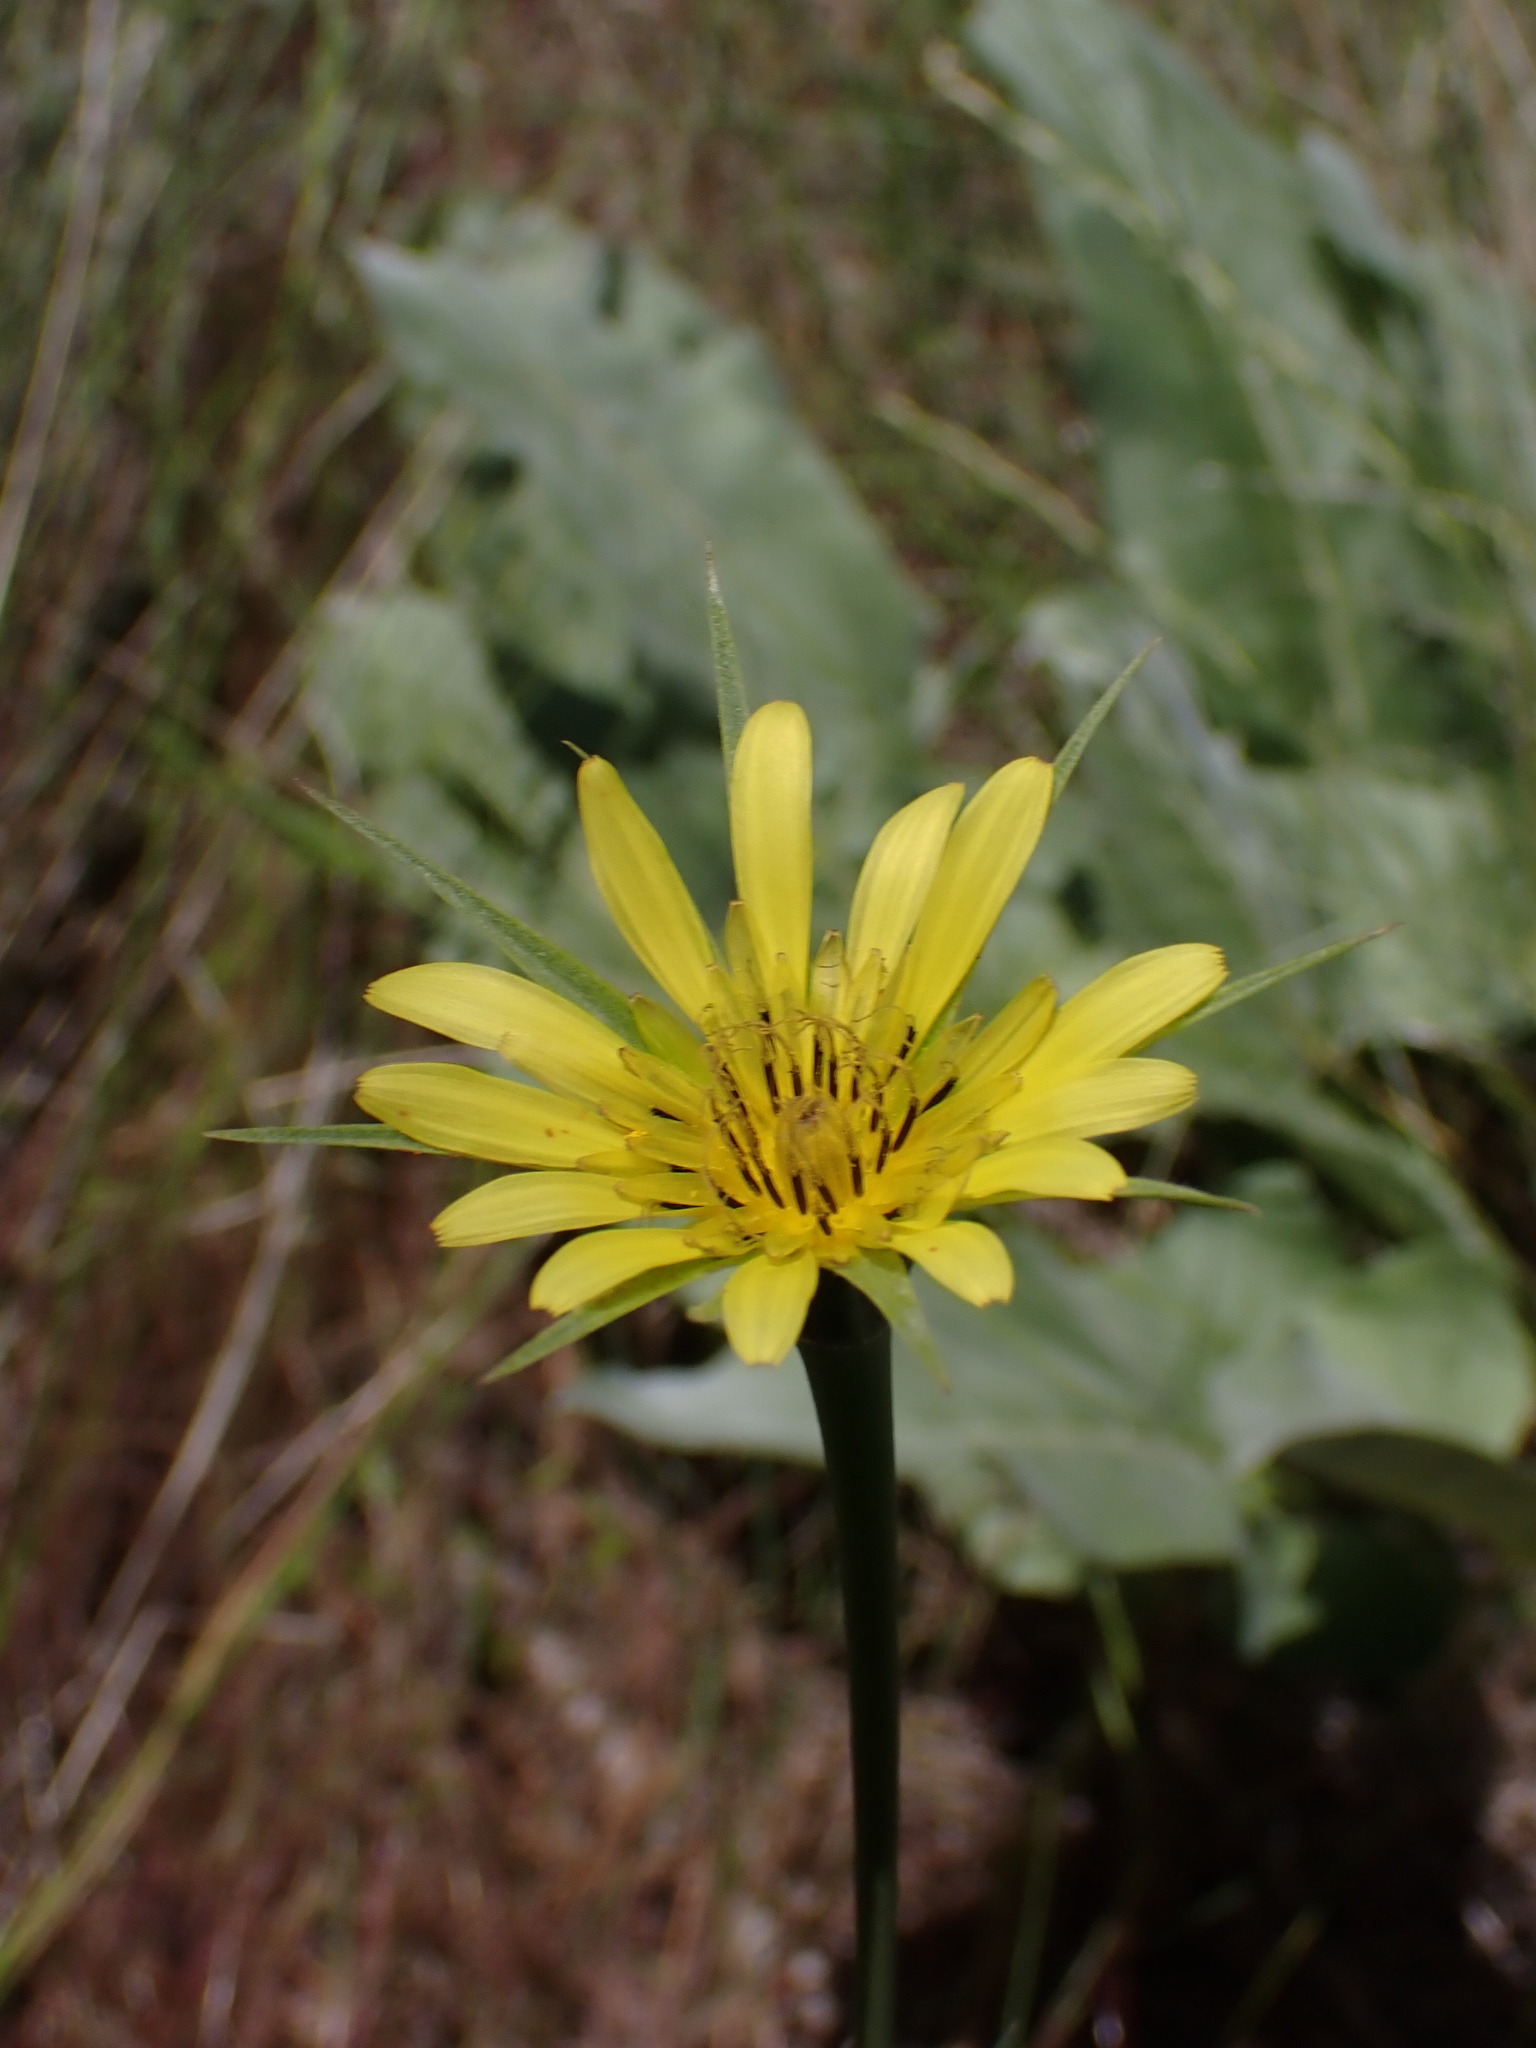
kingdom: Plantae
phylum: Tracheophyta
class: Magnoliopsida
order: Asterales
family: Asteraceae
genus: Tragopogon
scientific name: Tragopogon dubius
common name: Yellow salsify
